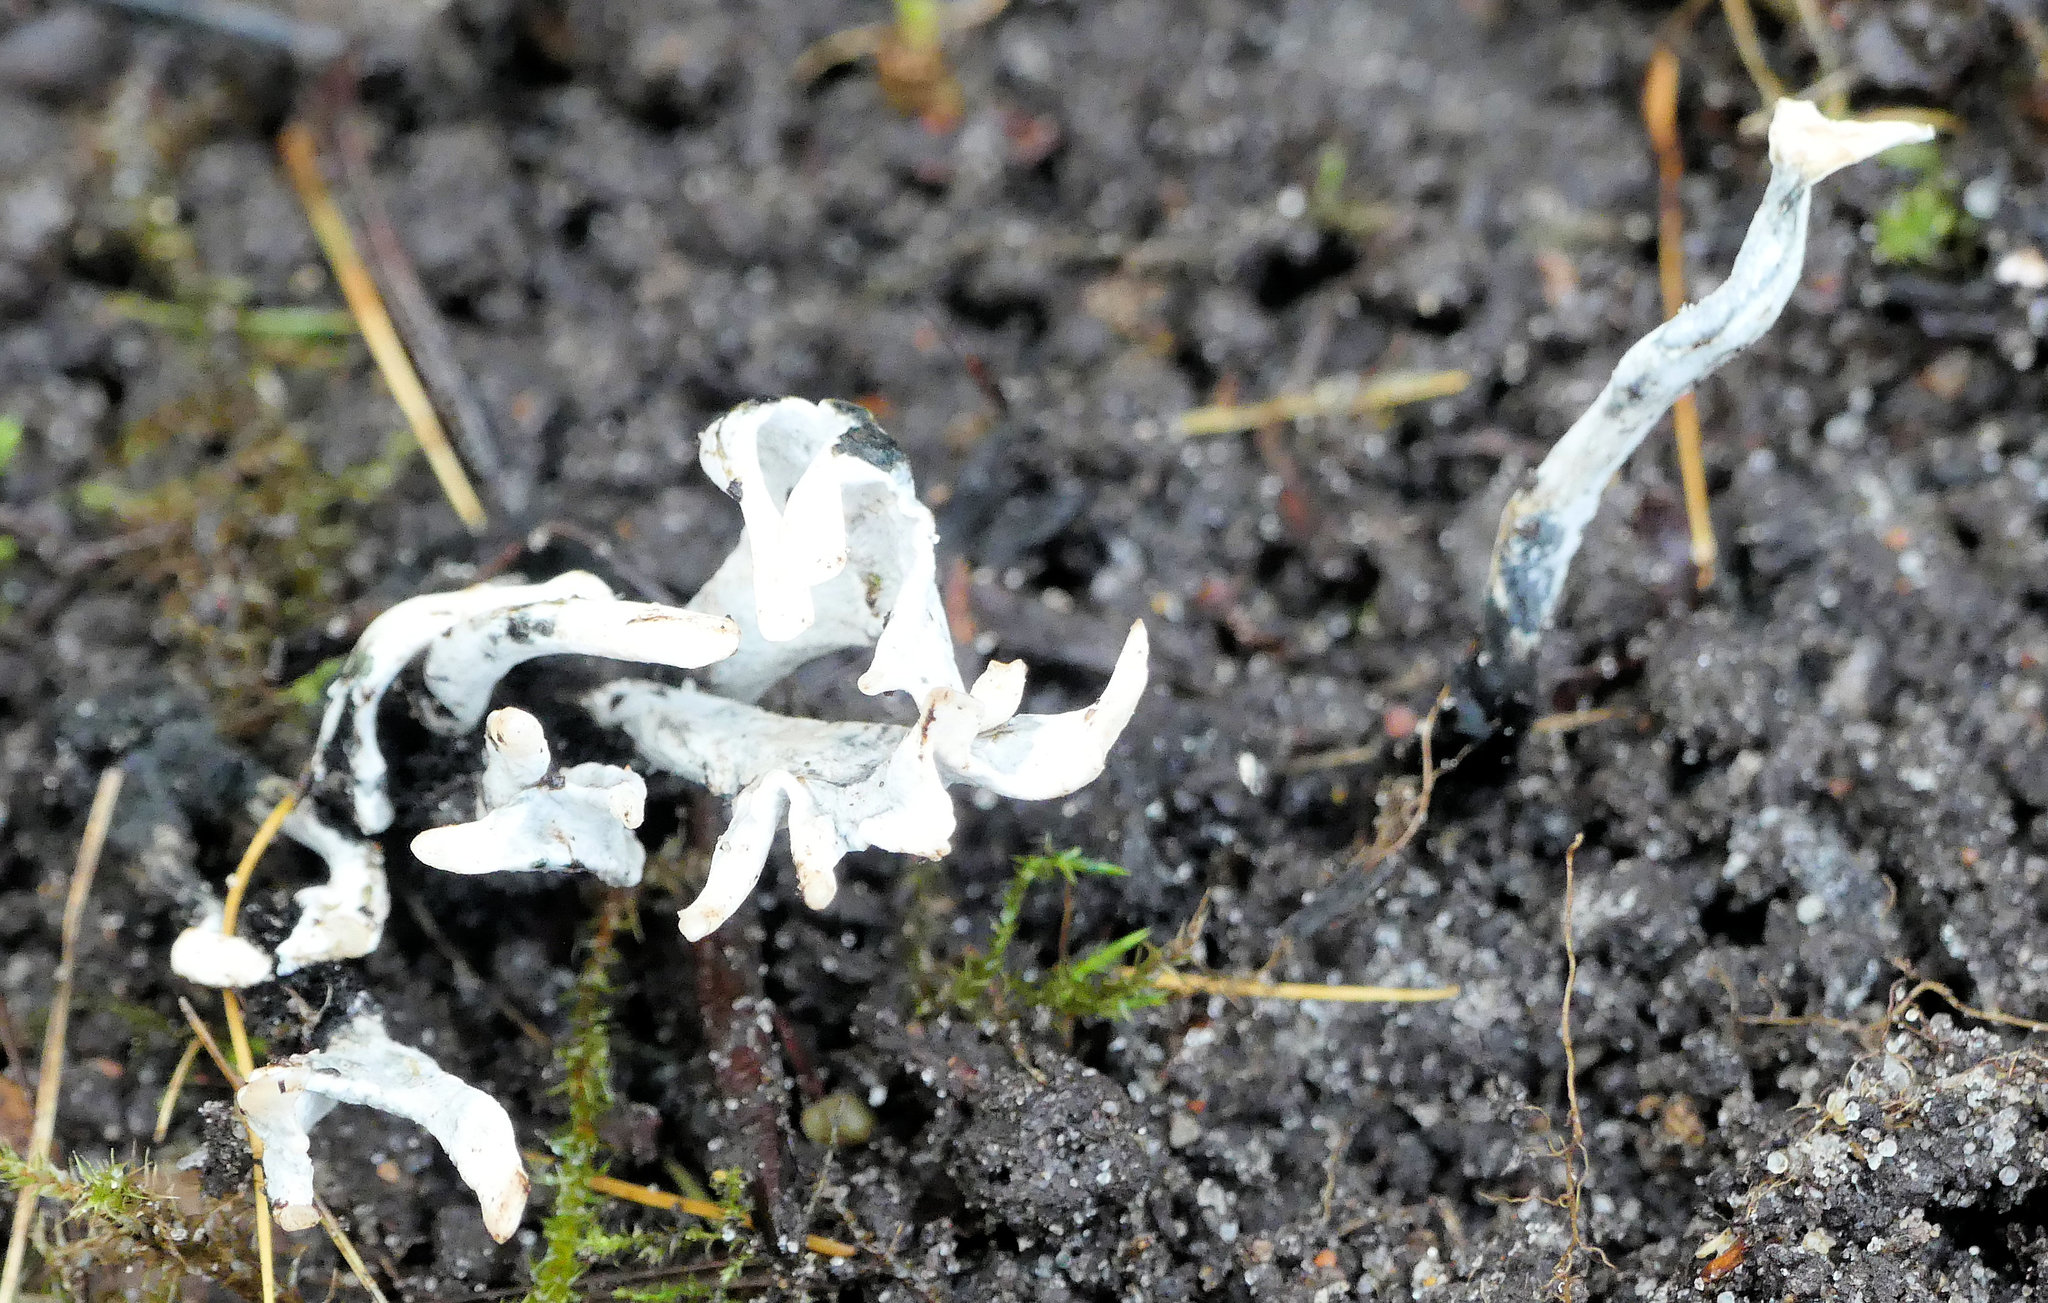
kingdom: Fungi
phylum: Ascomycota
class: Sordariomycetes
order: Xylariales
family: Xylariaceae
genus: Xylaria
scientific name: Xylaria hypoxylon
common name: Candle-snuff fungus
